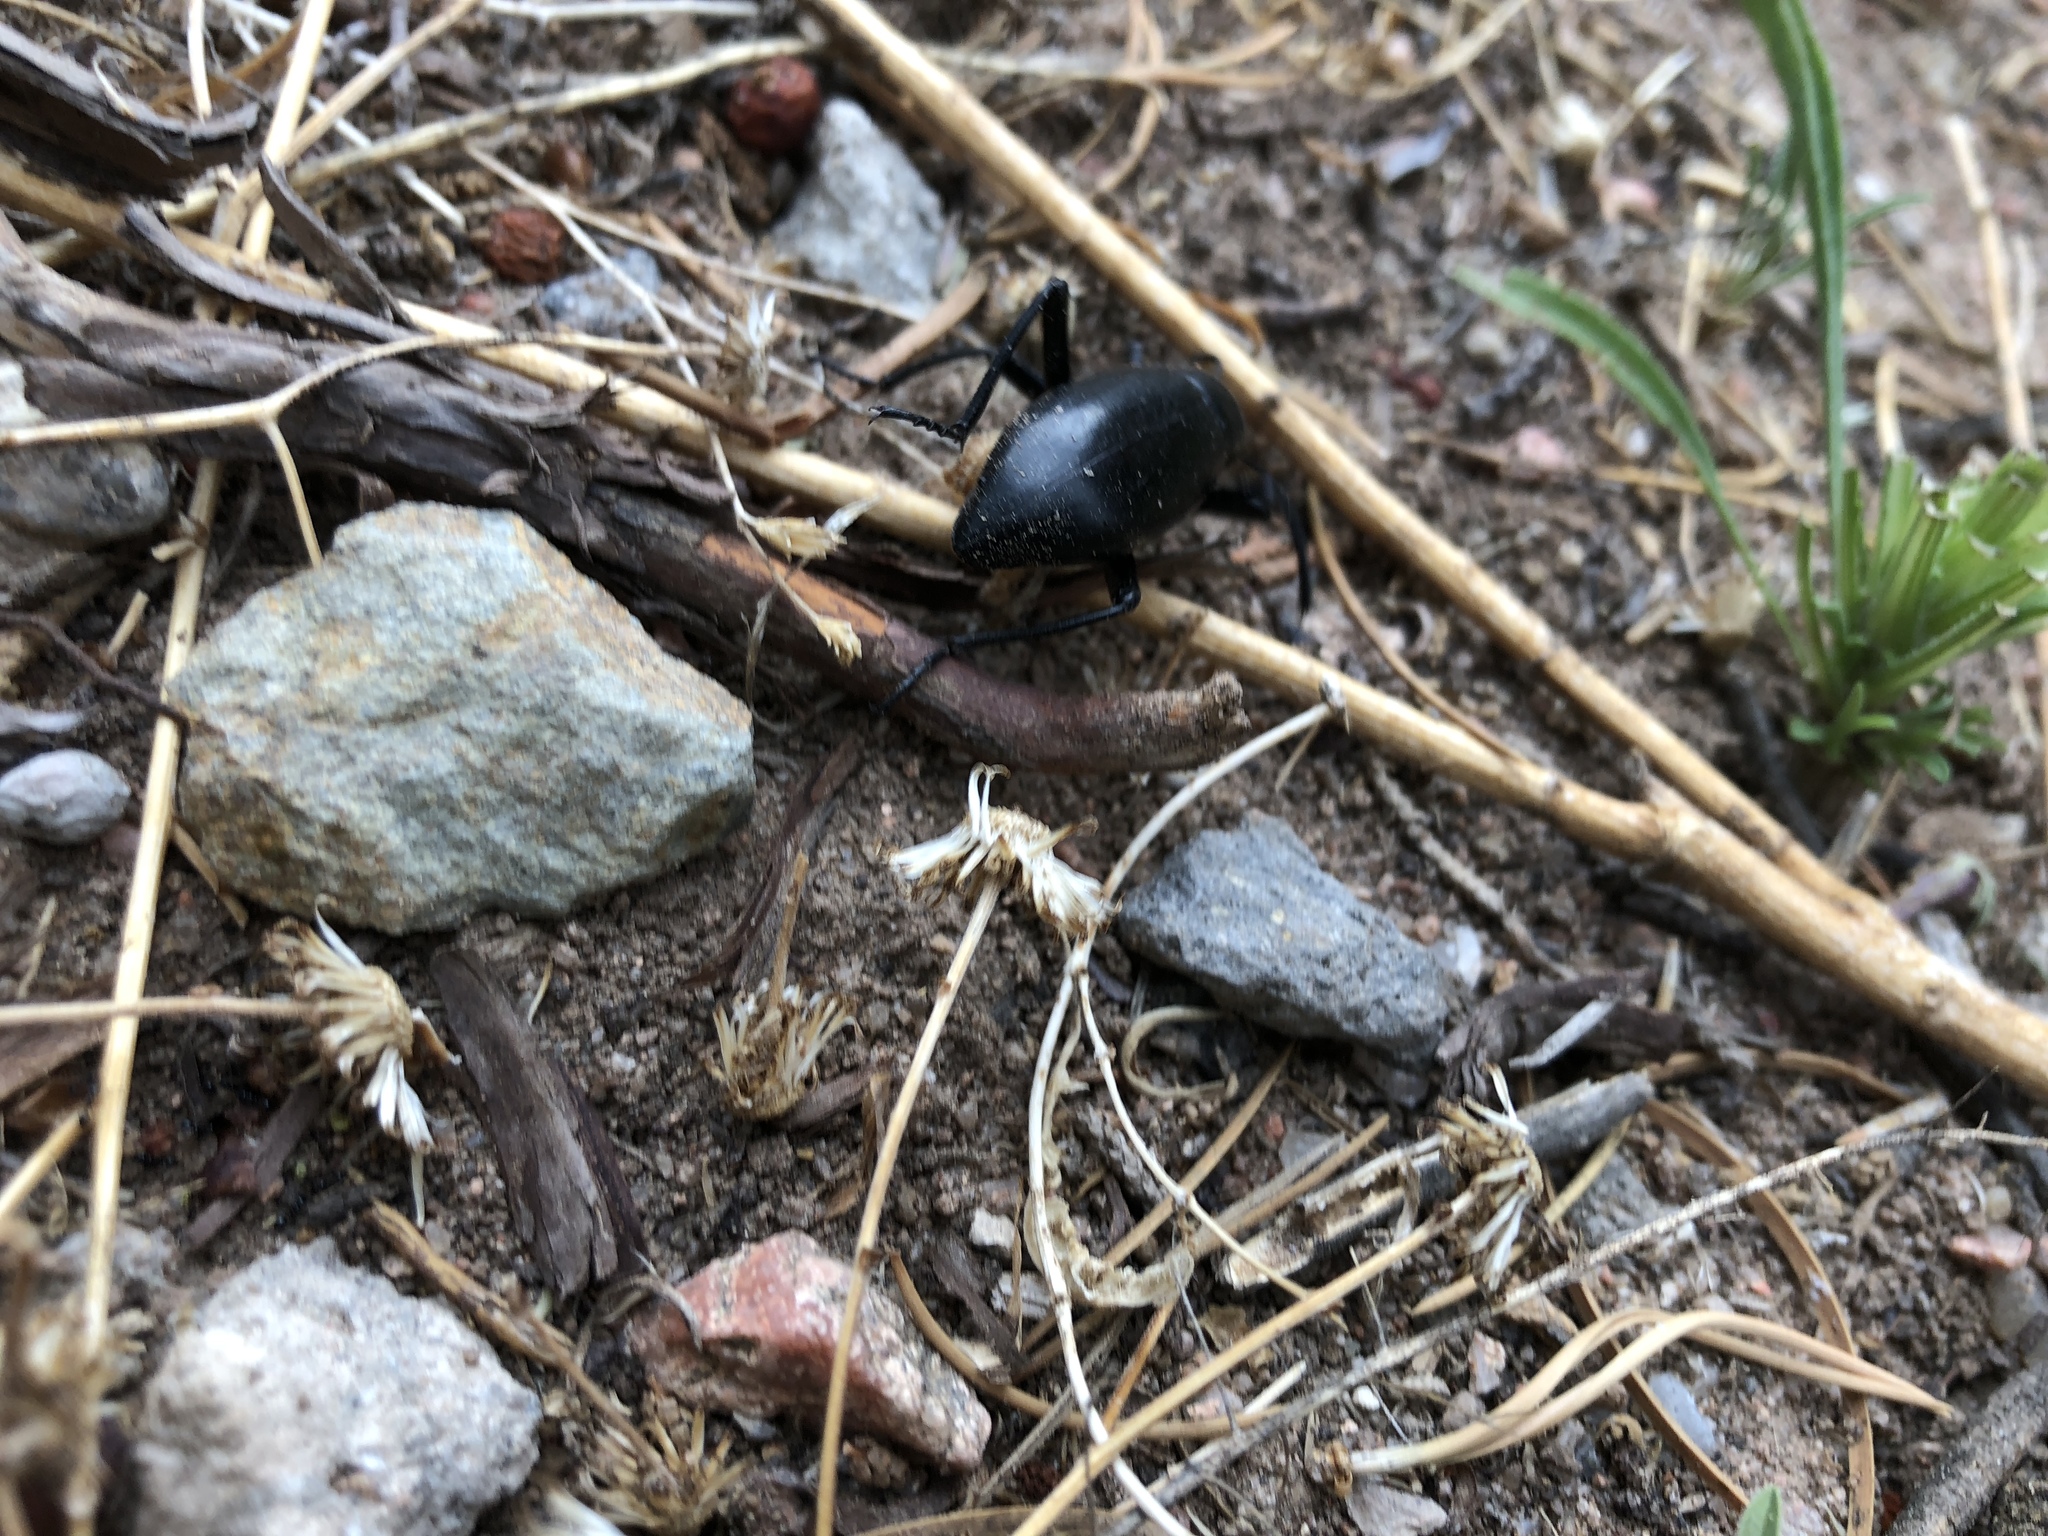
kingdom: Animalia
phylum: Arthropoda
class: Insecta
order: Coleoptera
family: Tenebrionidae
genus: Eleodes
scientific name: Eleodes longicollis
